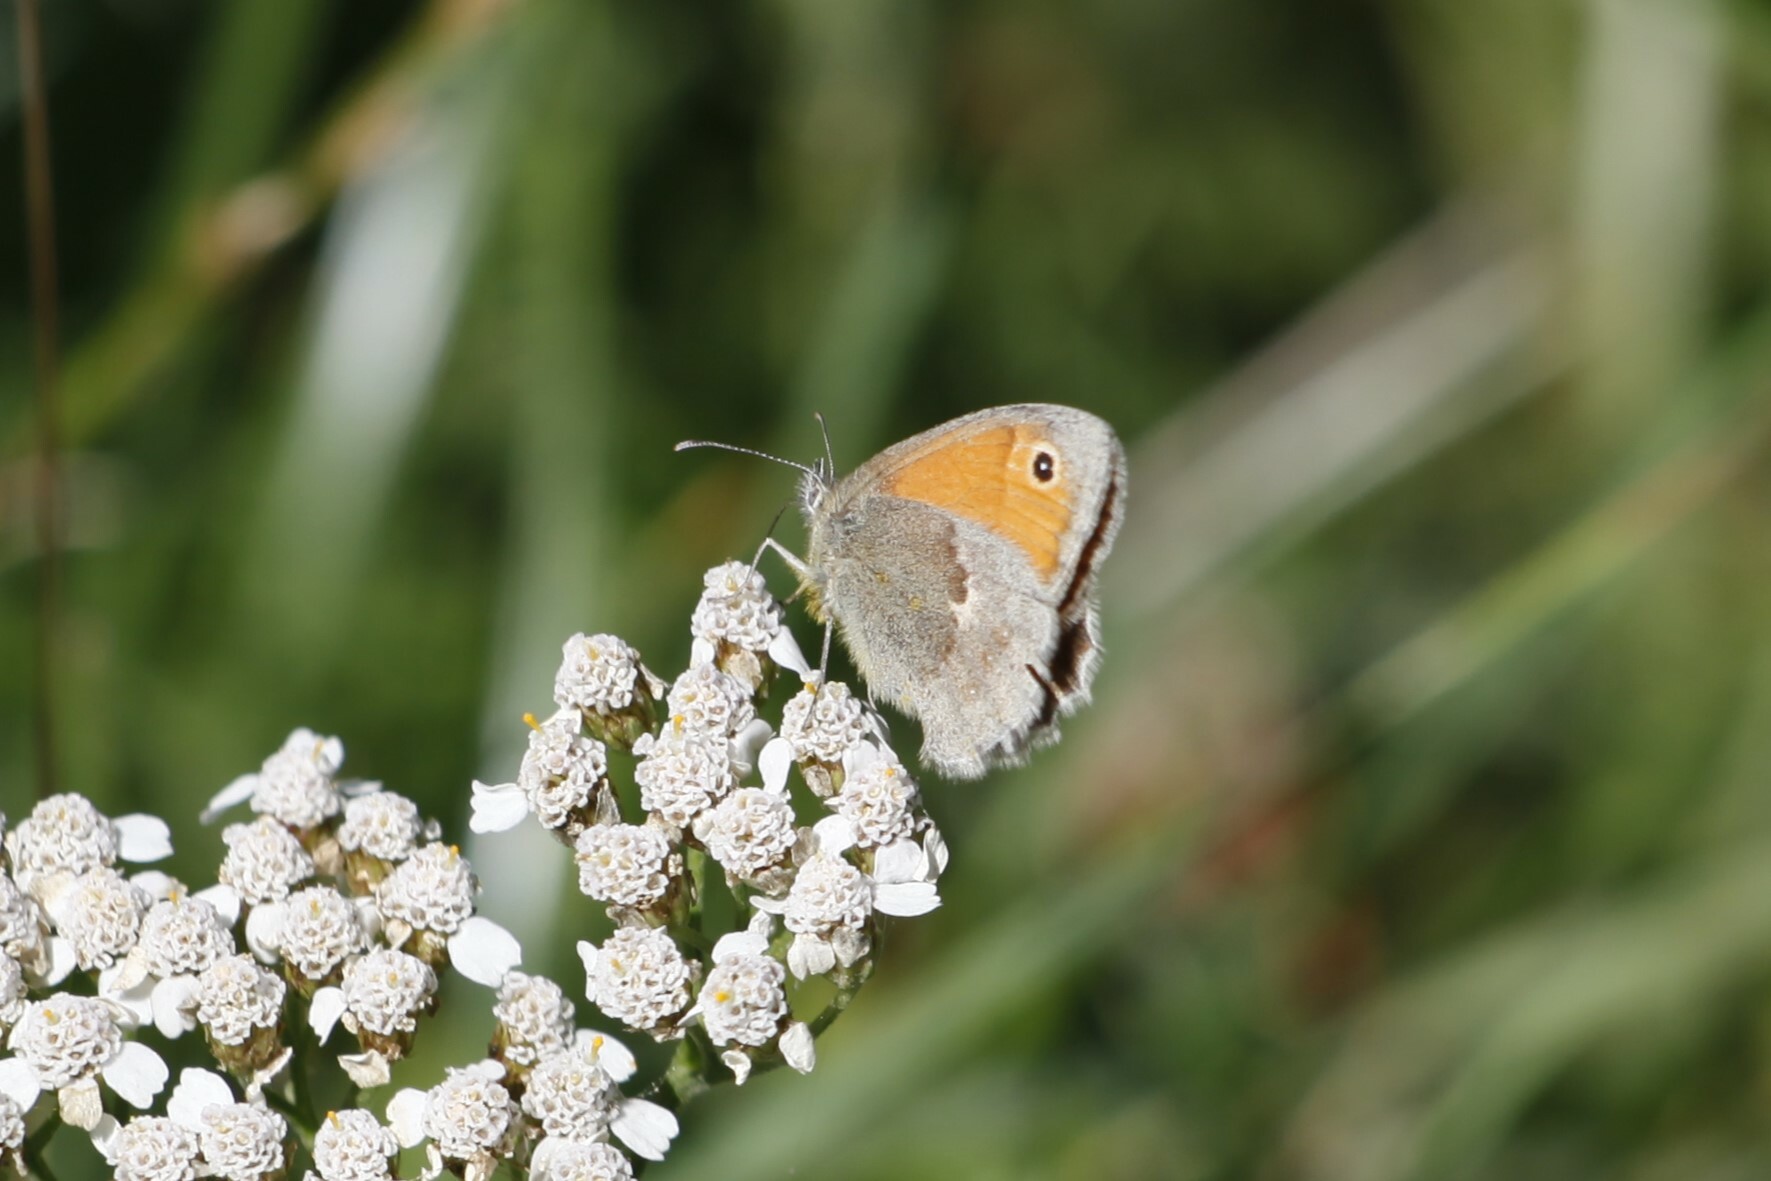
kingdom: Animalia
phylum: Arthropoda
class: Insecta
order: Lepidoptera
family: Nymphalidae
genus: Coenonympha
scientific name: Coenonympha pamphilus
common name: Small heath
